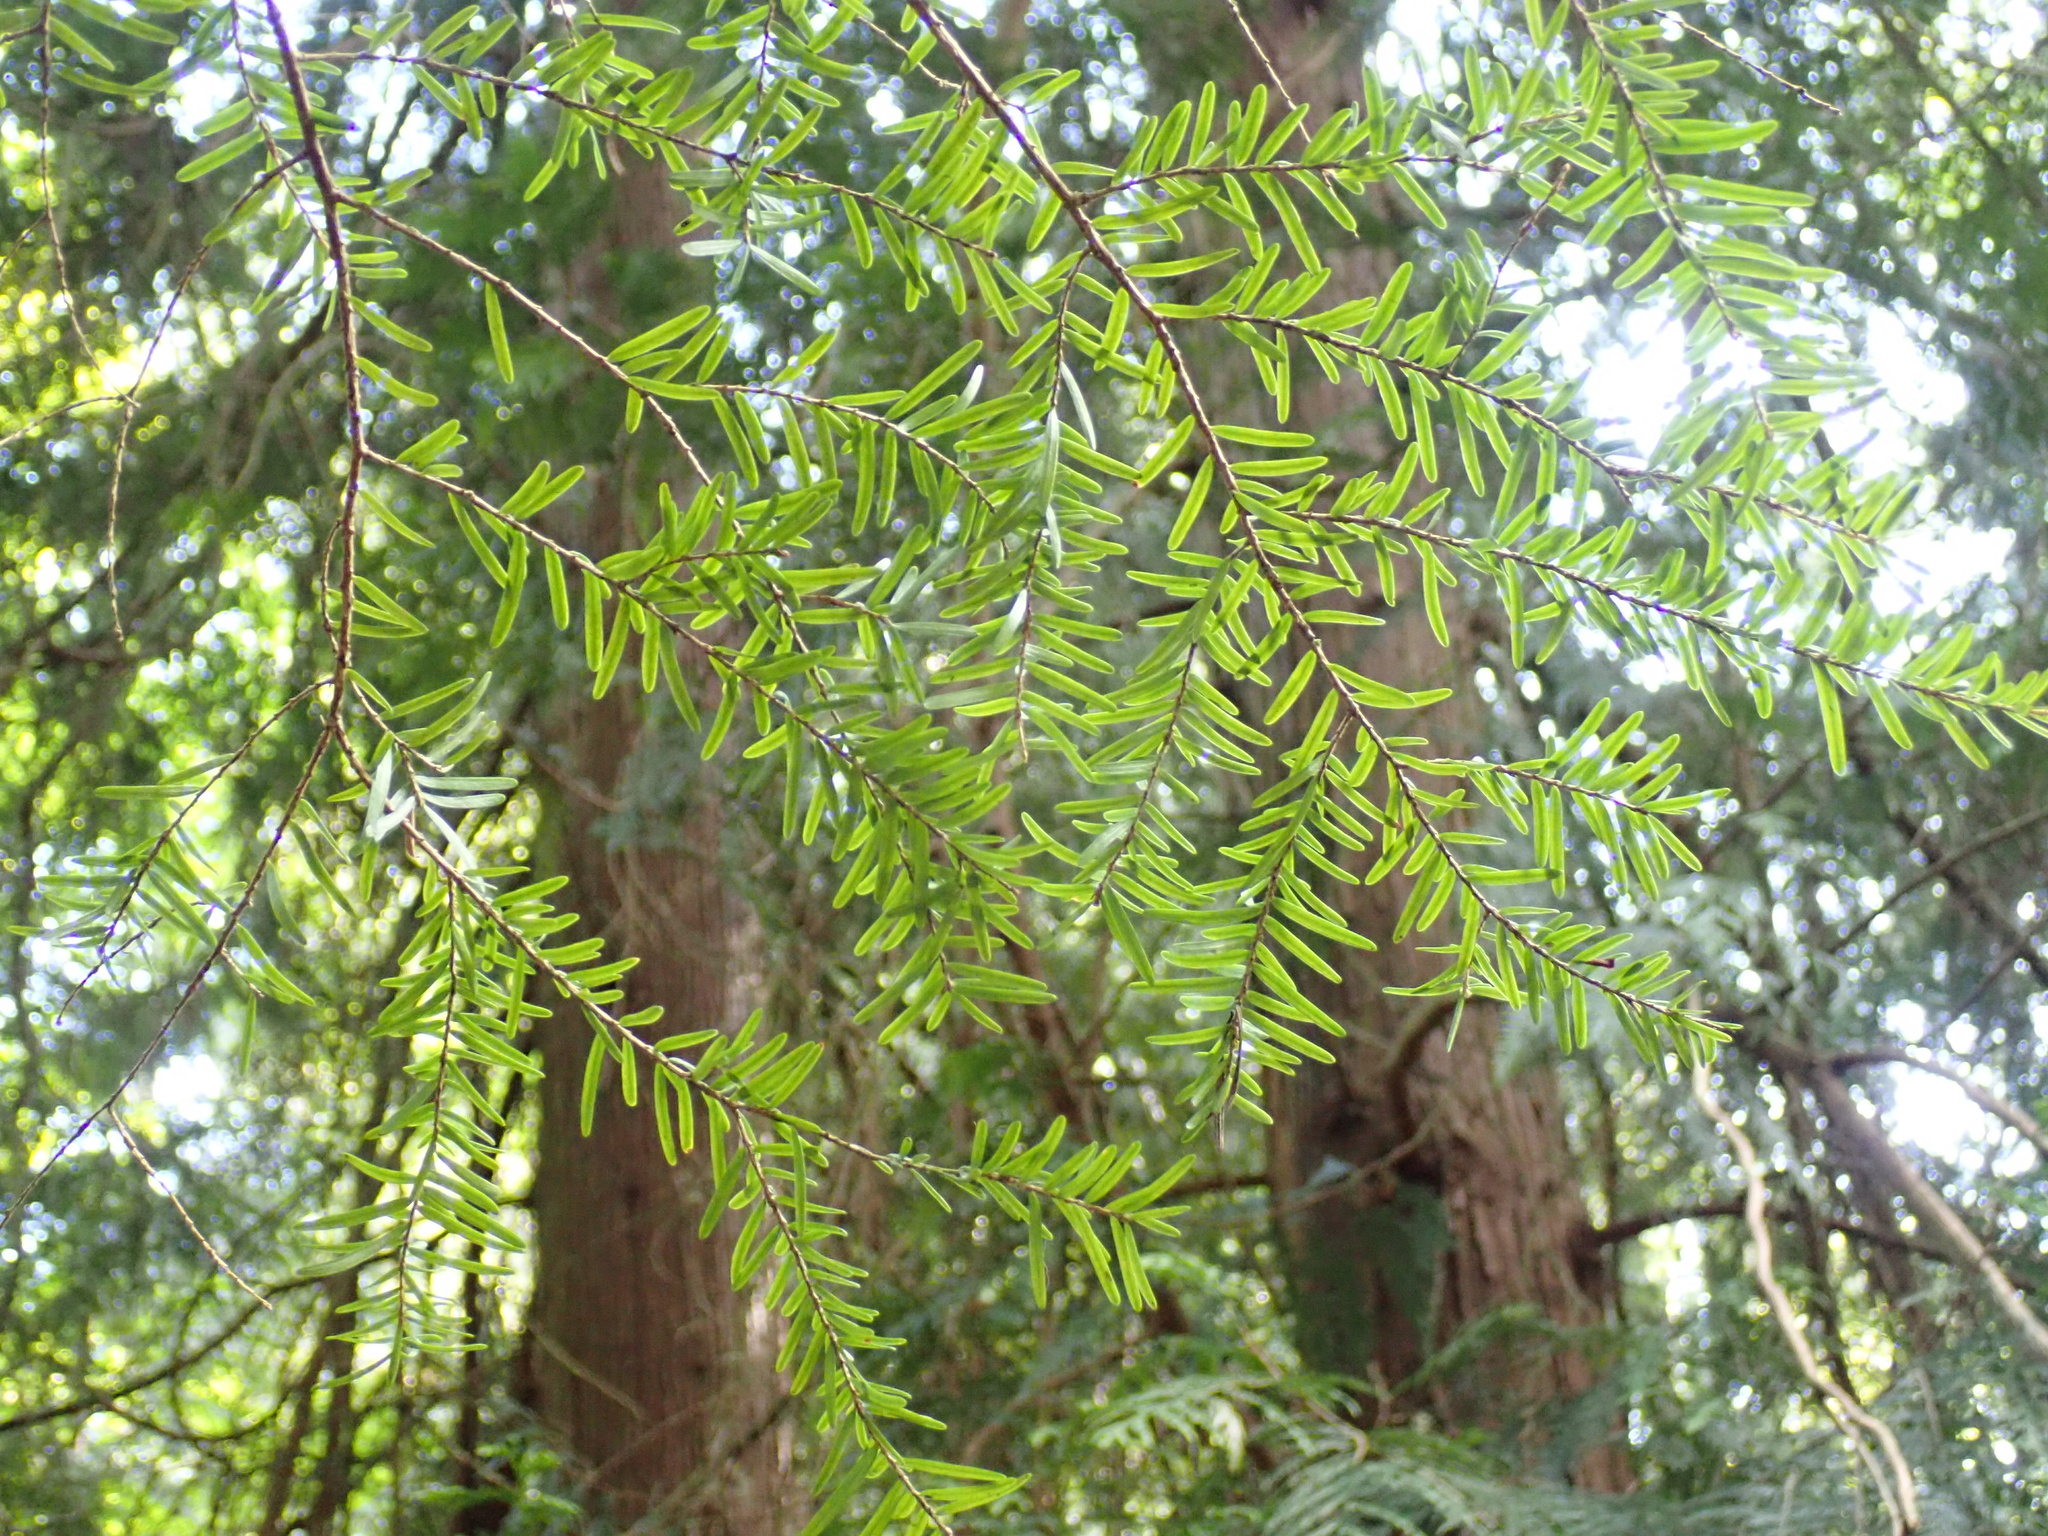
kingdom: Plantae
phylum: Tracheophyta
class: Pinopsida
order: Pinales
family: Pinaceae
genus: Tsuga
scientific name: Tsuga heterophylla
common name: Western hemlock
